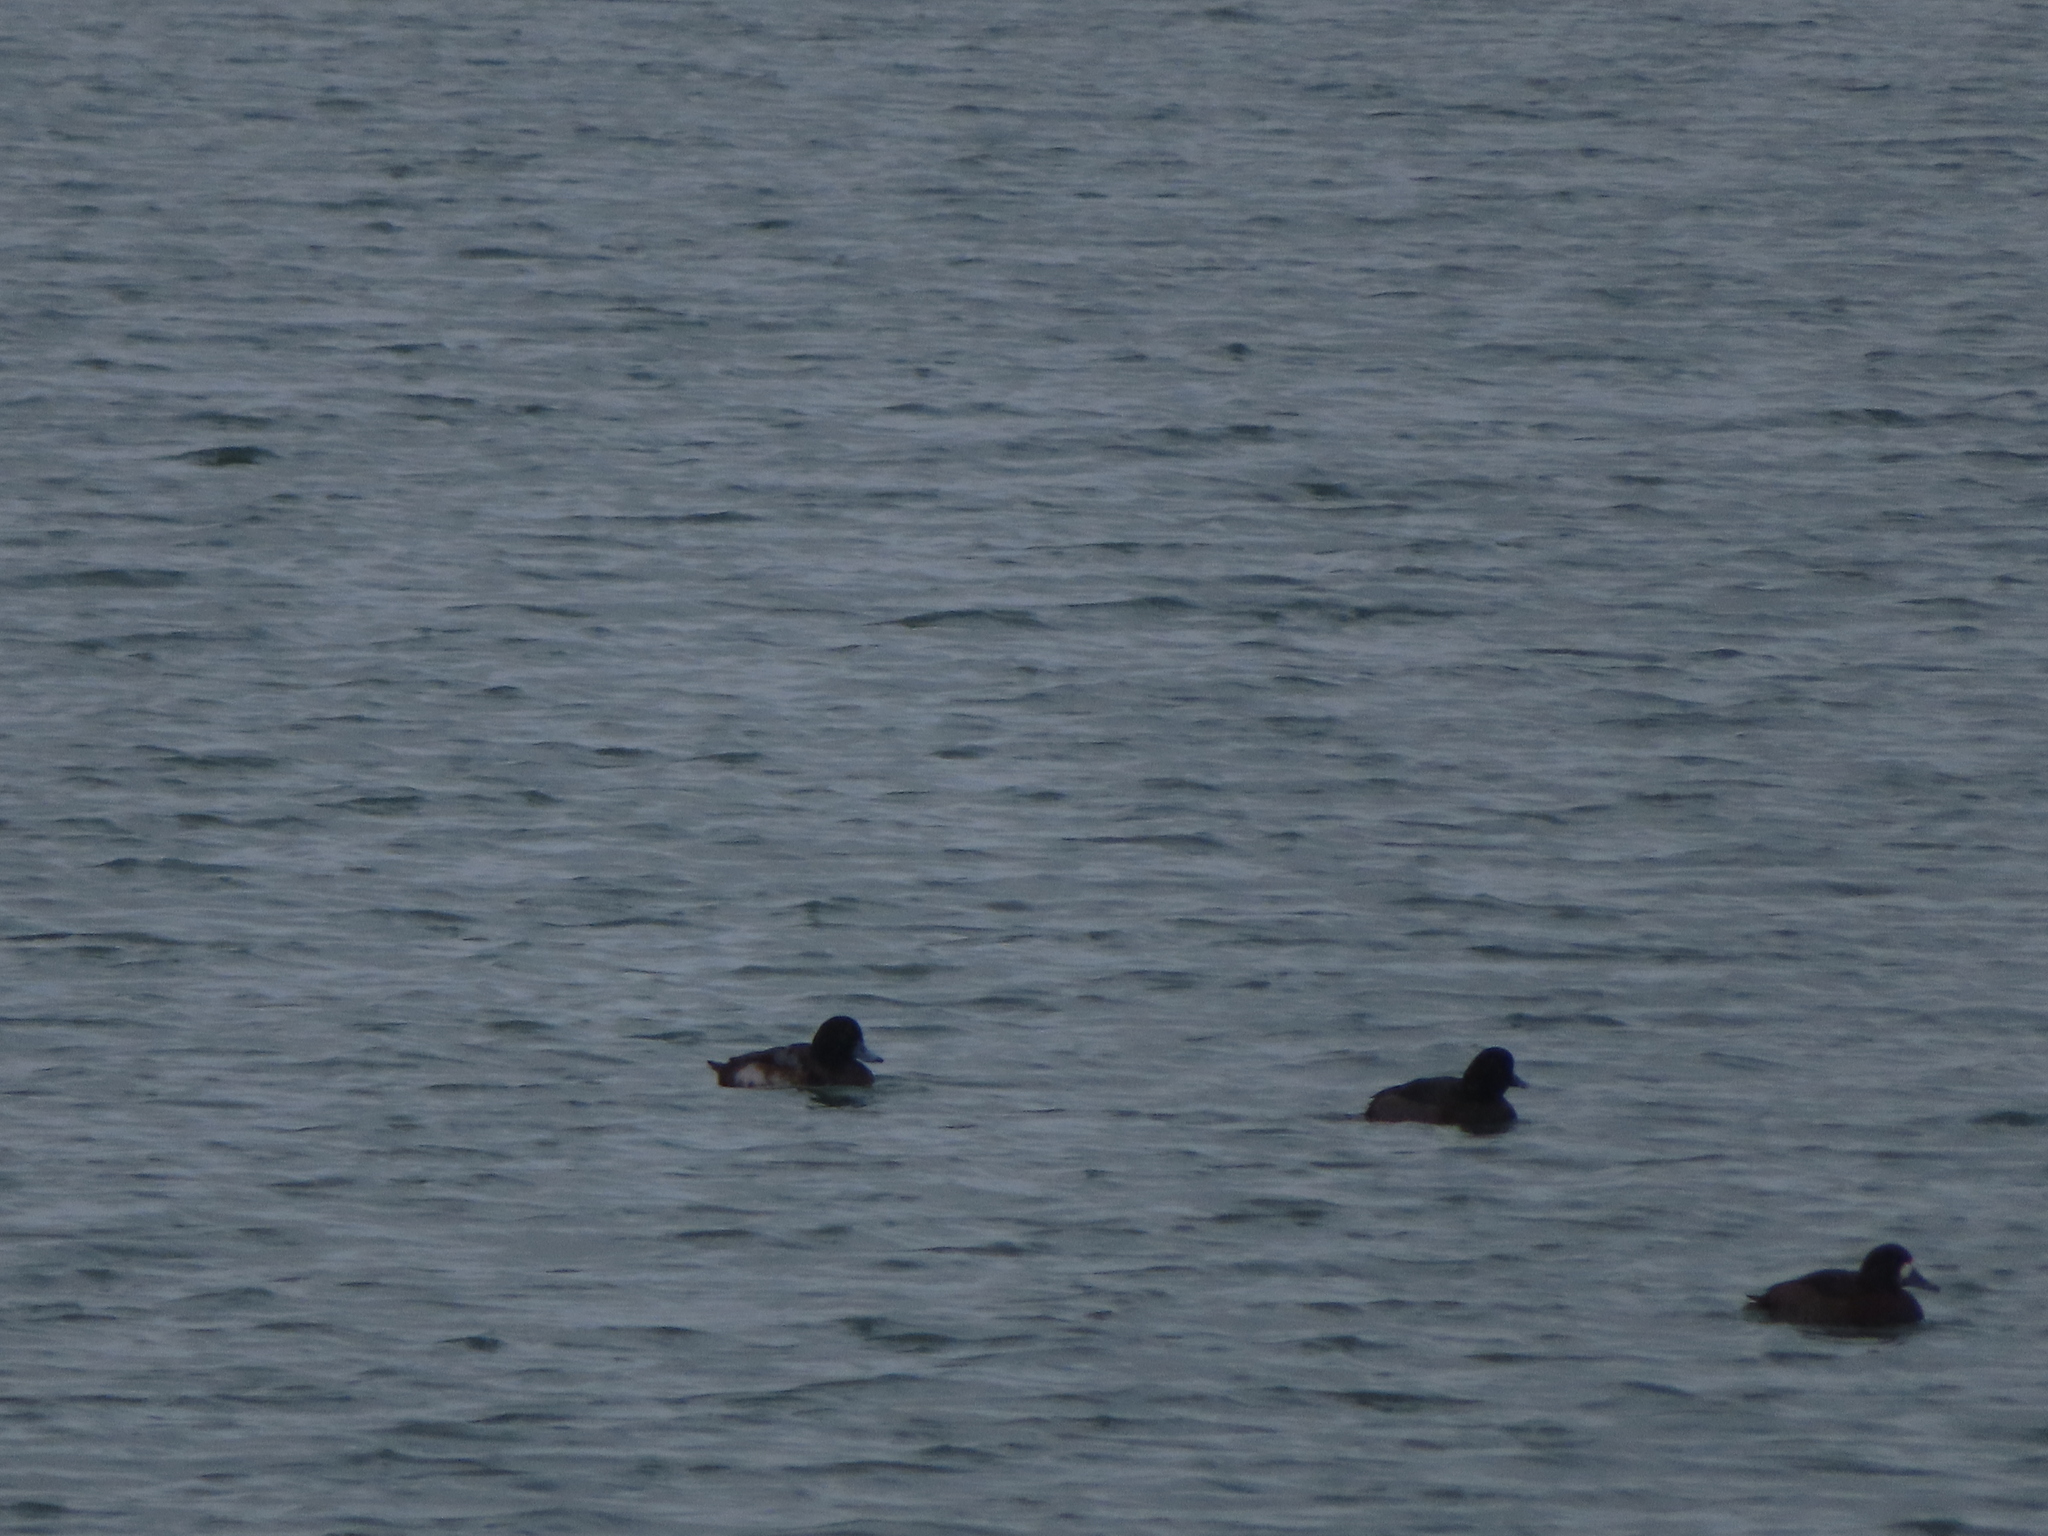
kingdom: Animalia
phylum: Chordata
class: Aves
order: Anseriformes
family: Anatidae
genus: Aythya
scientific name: Aythya marila
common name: Greater scaup
